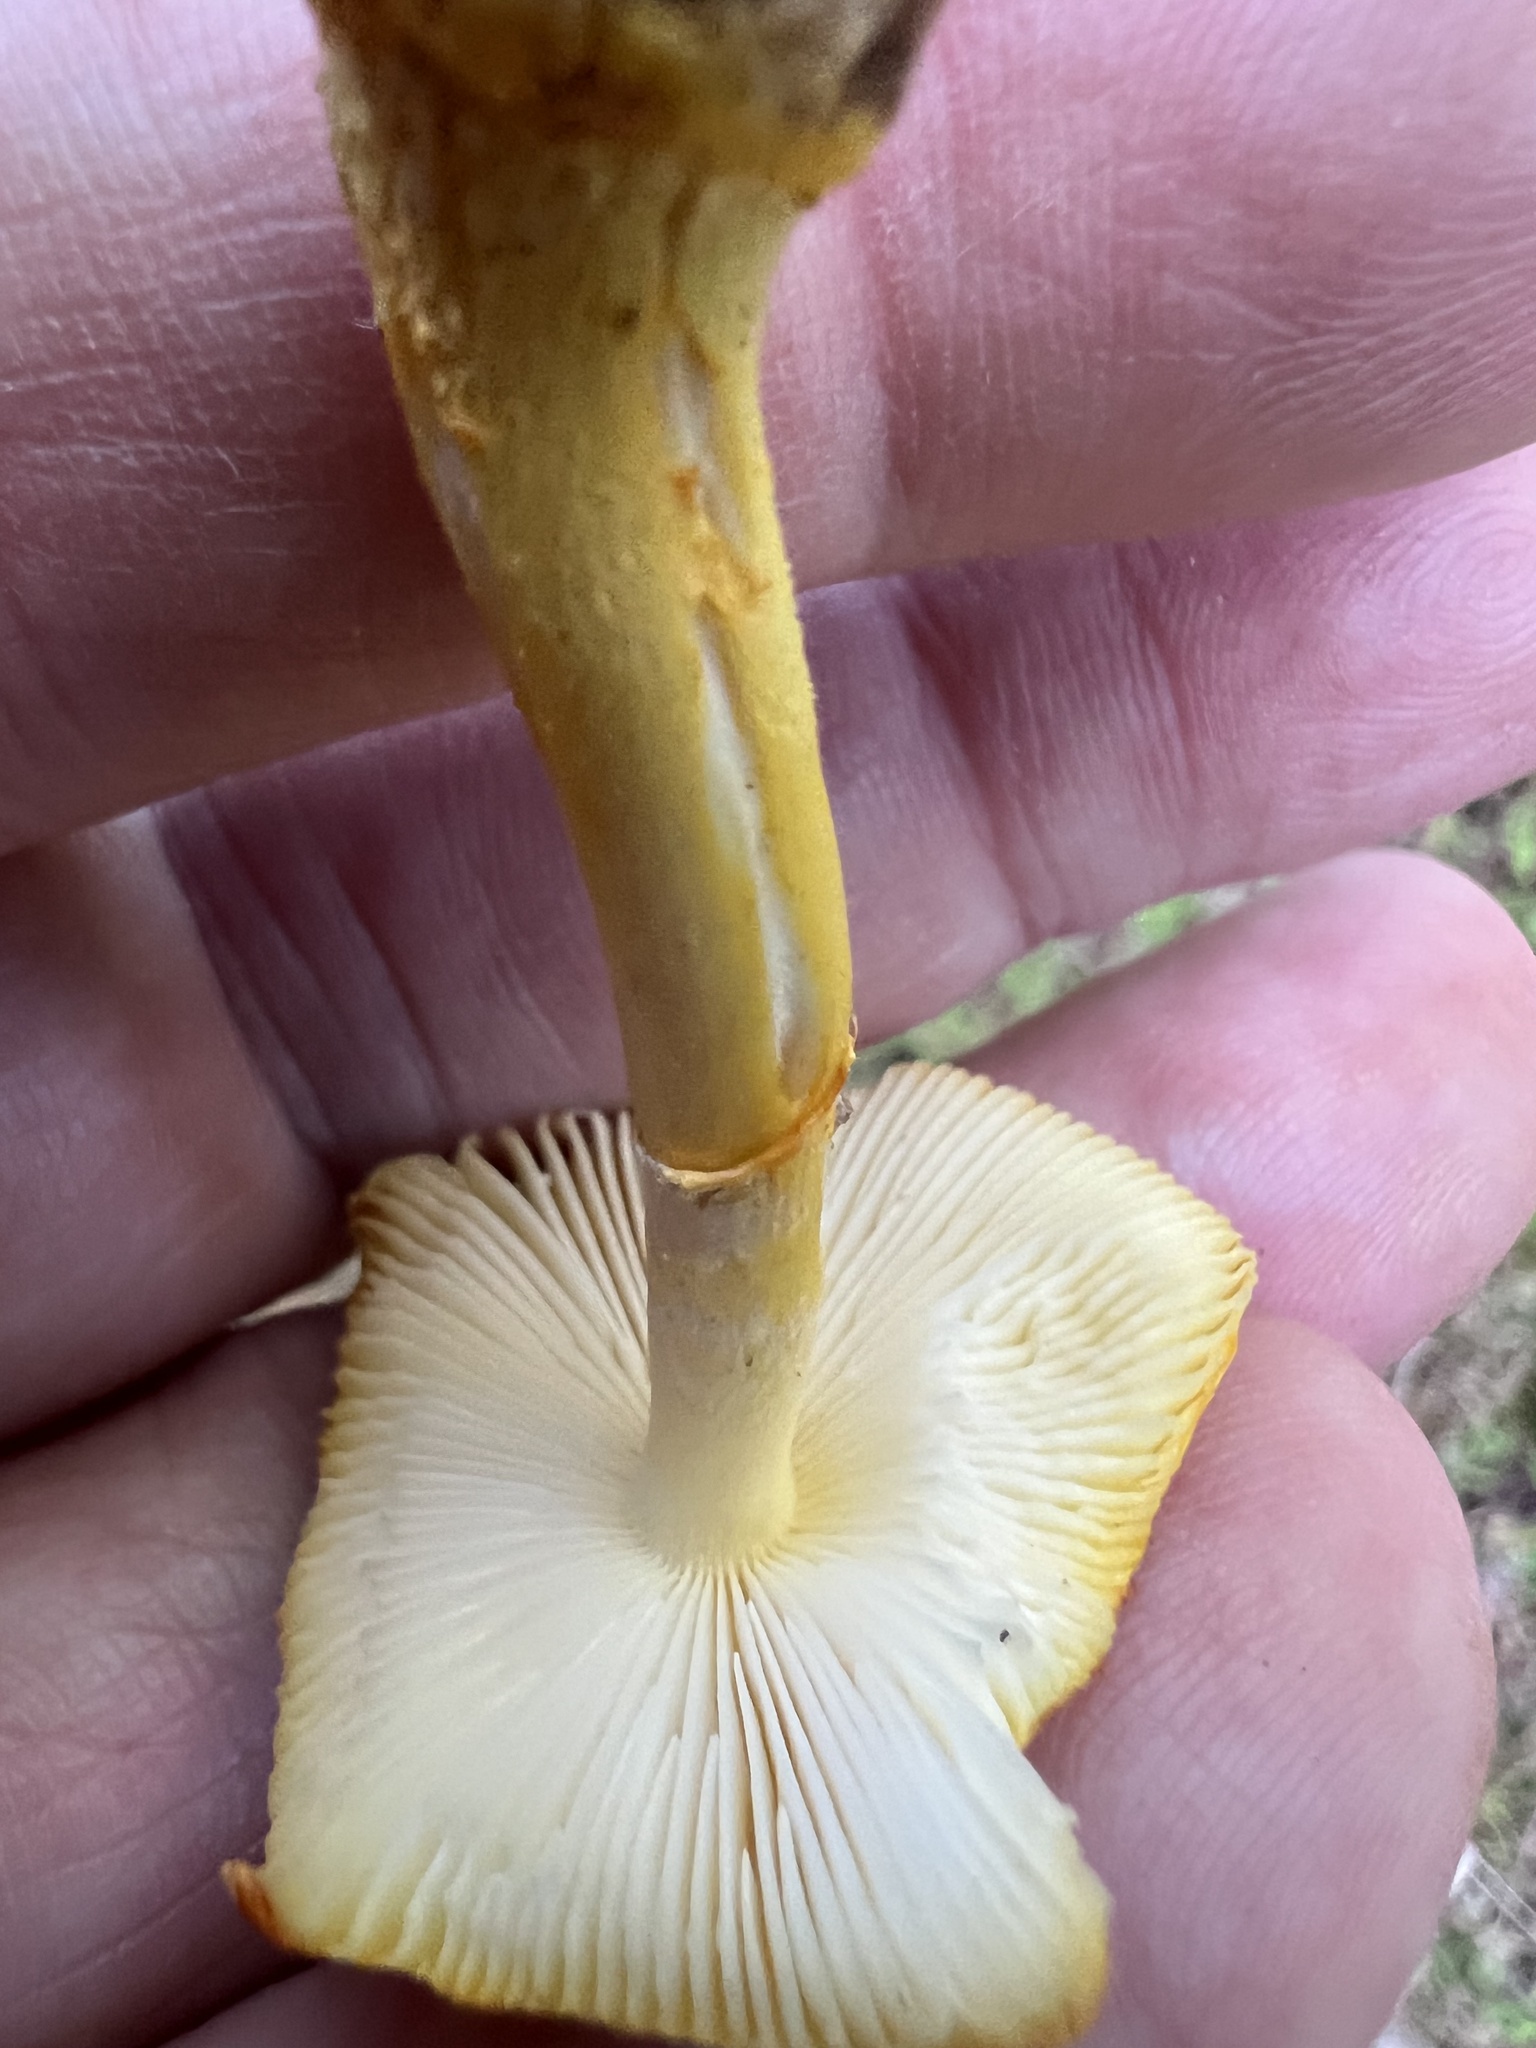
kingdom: Fungi
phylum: Basidiomycota
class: Agaricomycetes
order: Agaricales
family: Amanitaceae
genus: Amanita
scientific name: Amanita flavoconia
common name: Yellow patches
